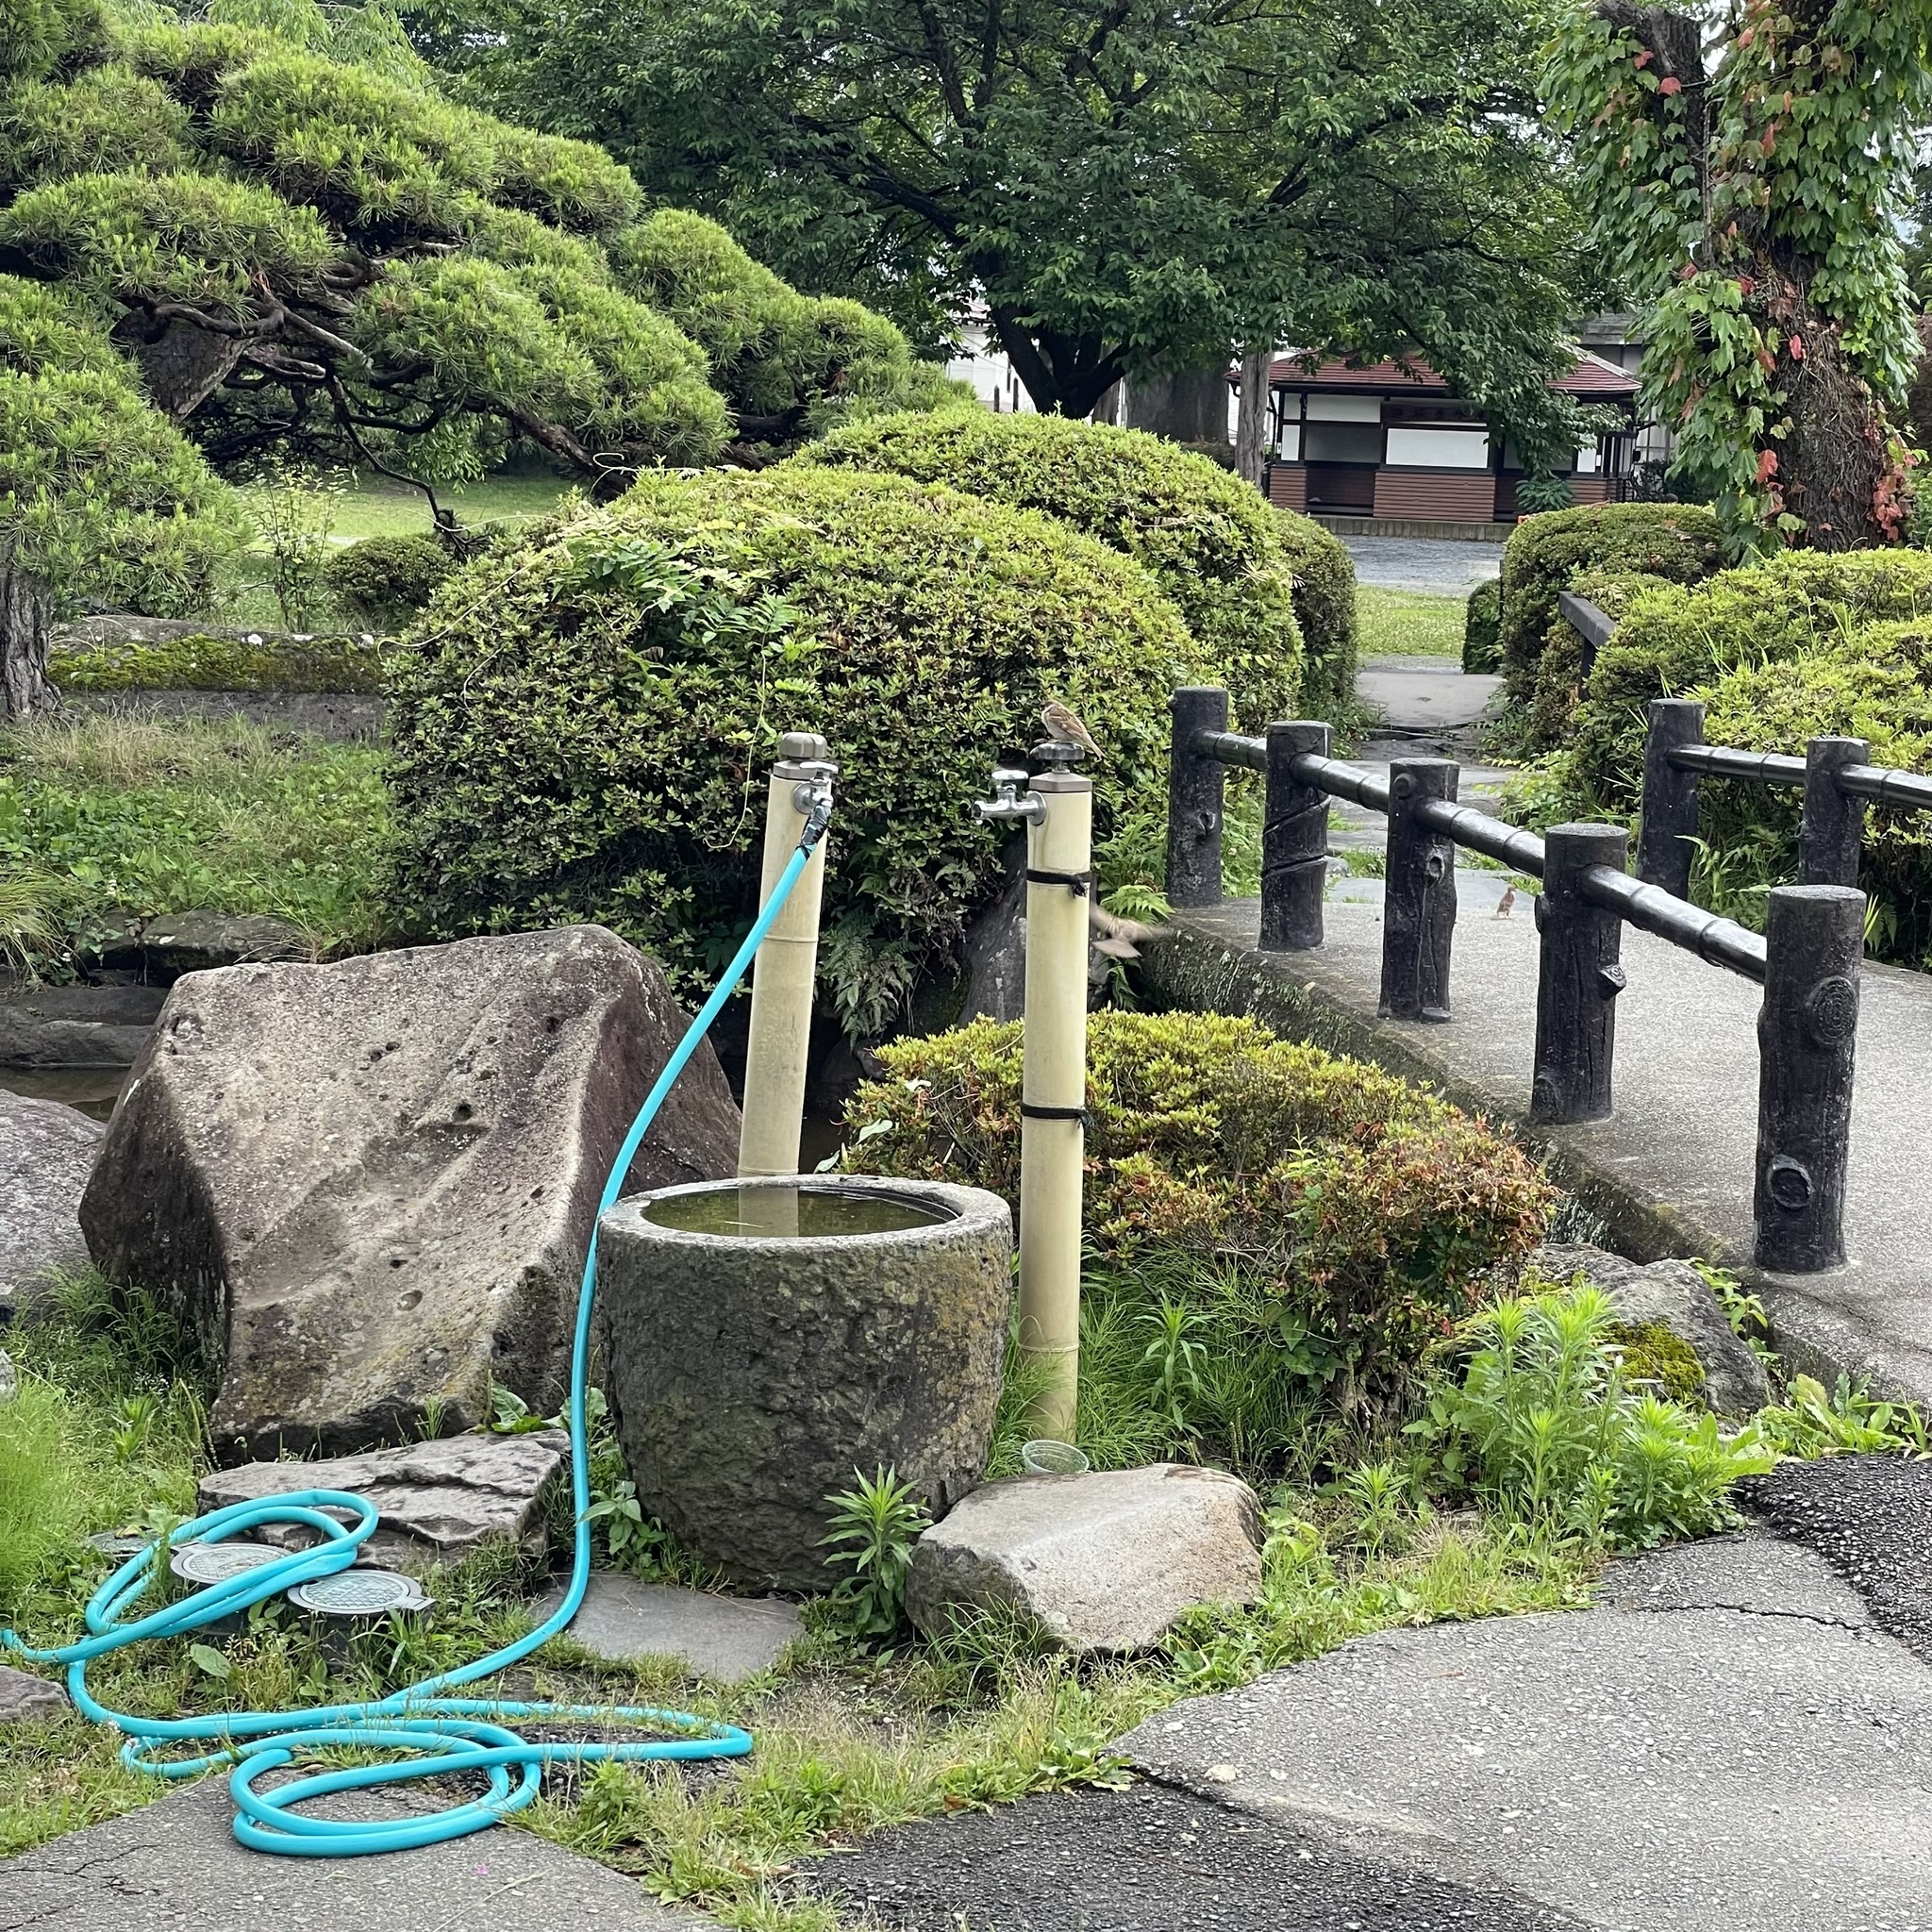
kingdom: Animalia
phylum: Chordata
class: Aves
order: Passeriformes
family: Passeridae
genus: Passer
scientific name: Passer montanus
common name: Eurasian tree sparrow
